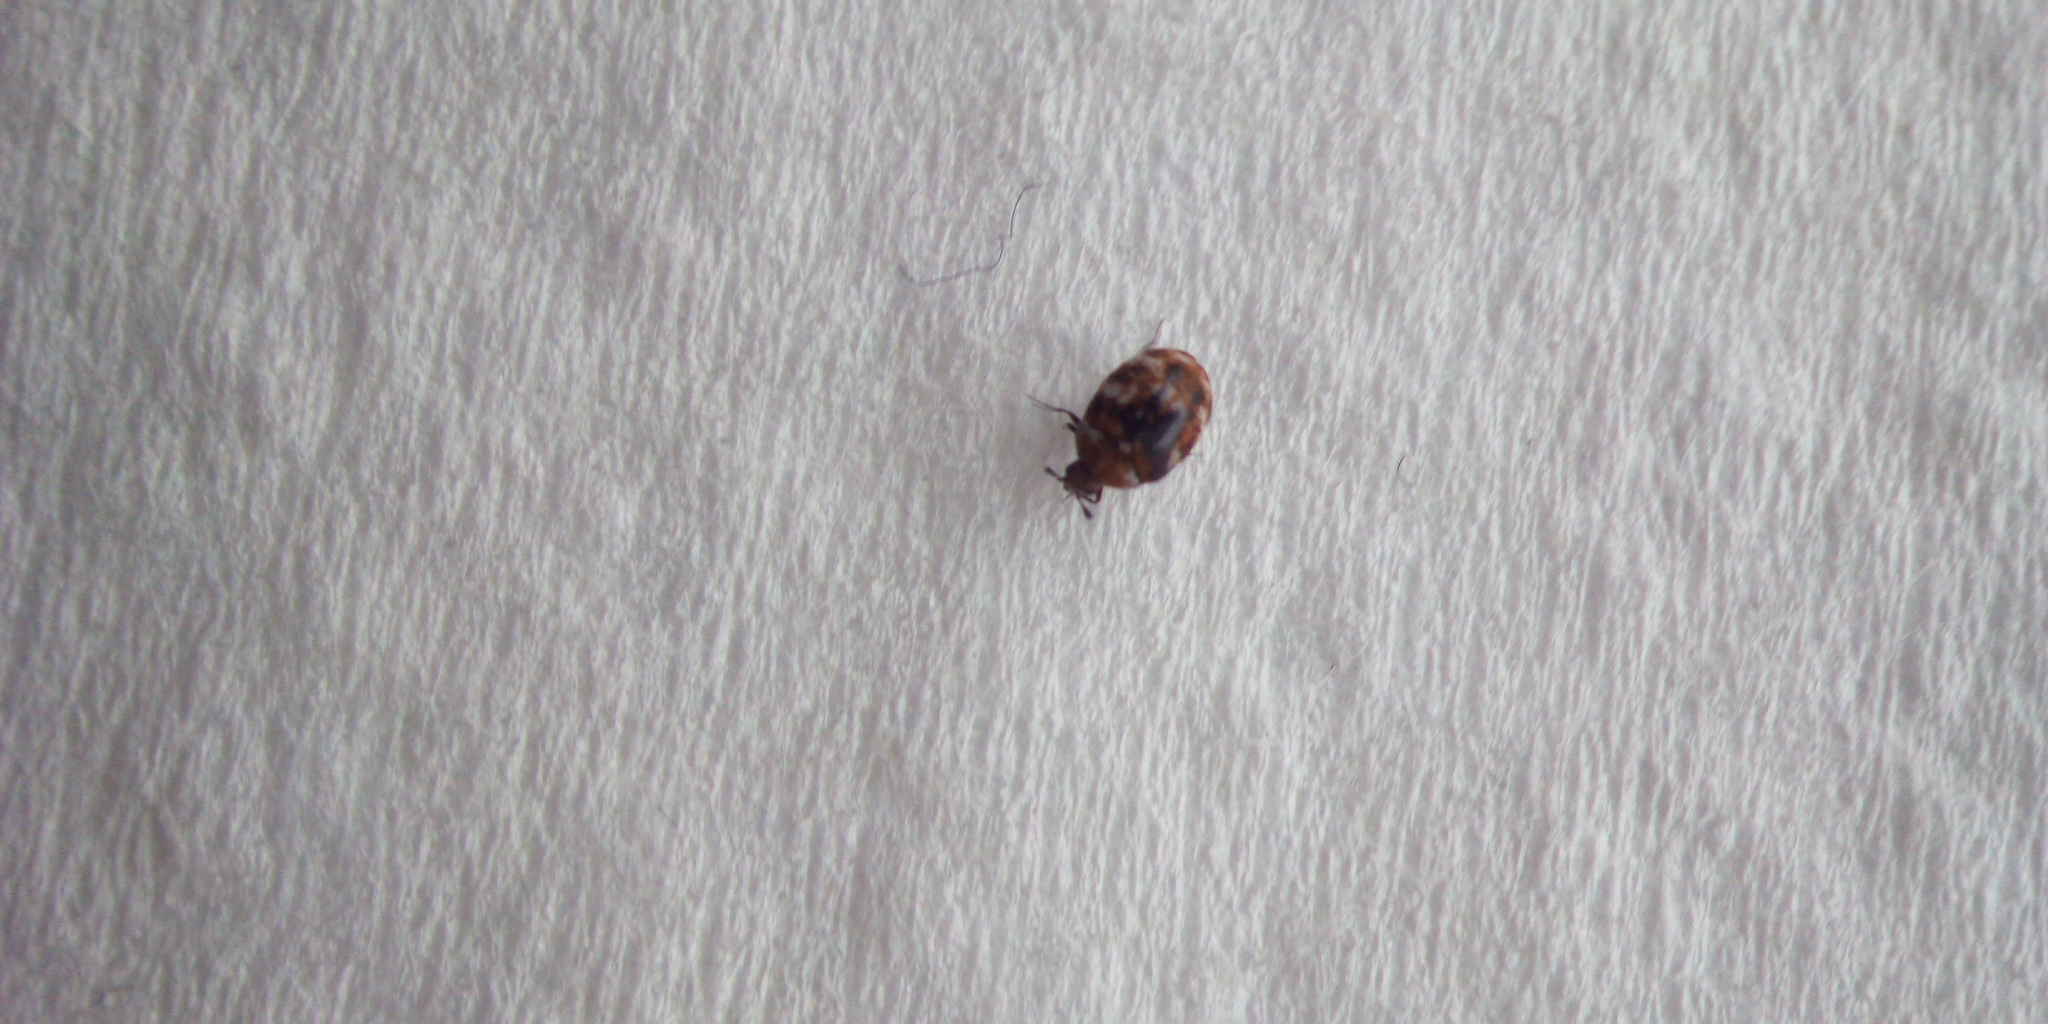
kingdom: Animalia
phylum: Arthropoda
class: Insecta
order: Coleoptera
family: Dermestidae
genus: Anthrenus
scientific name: Anthrenus verbasci
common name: Varied carpet beetle
